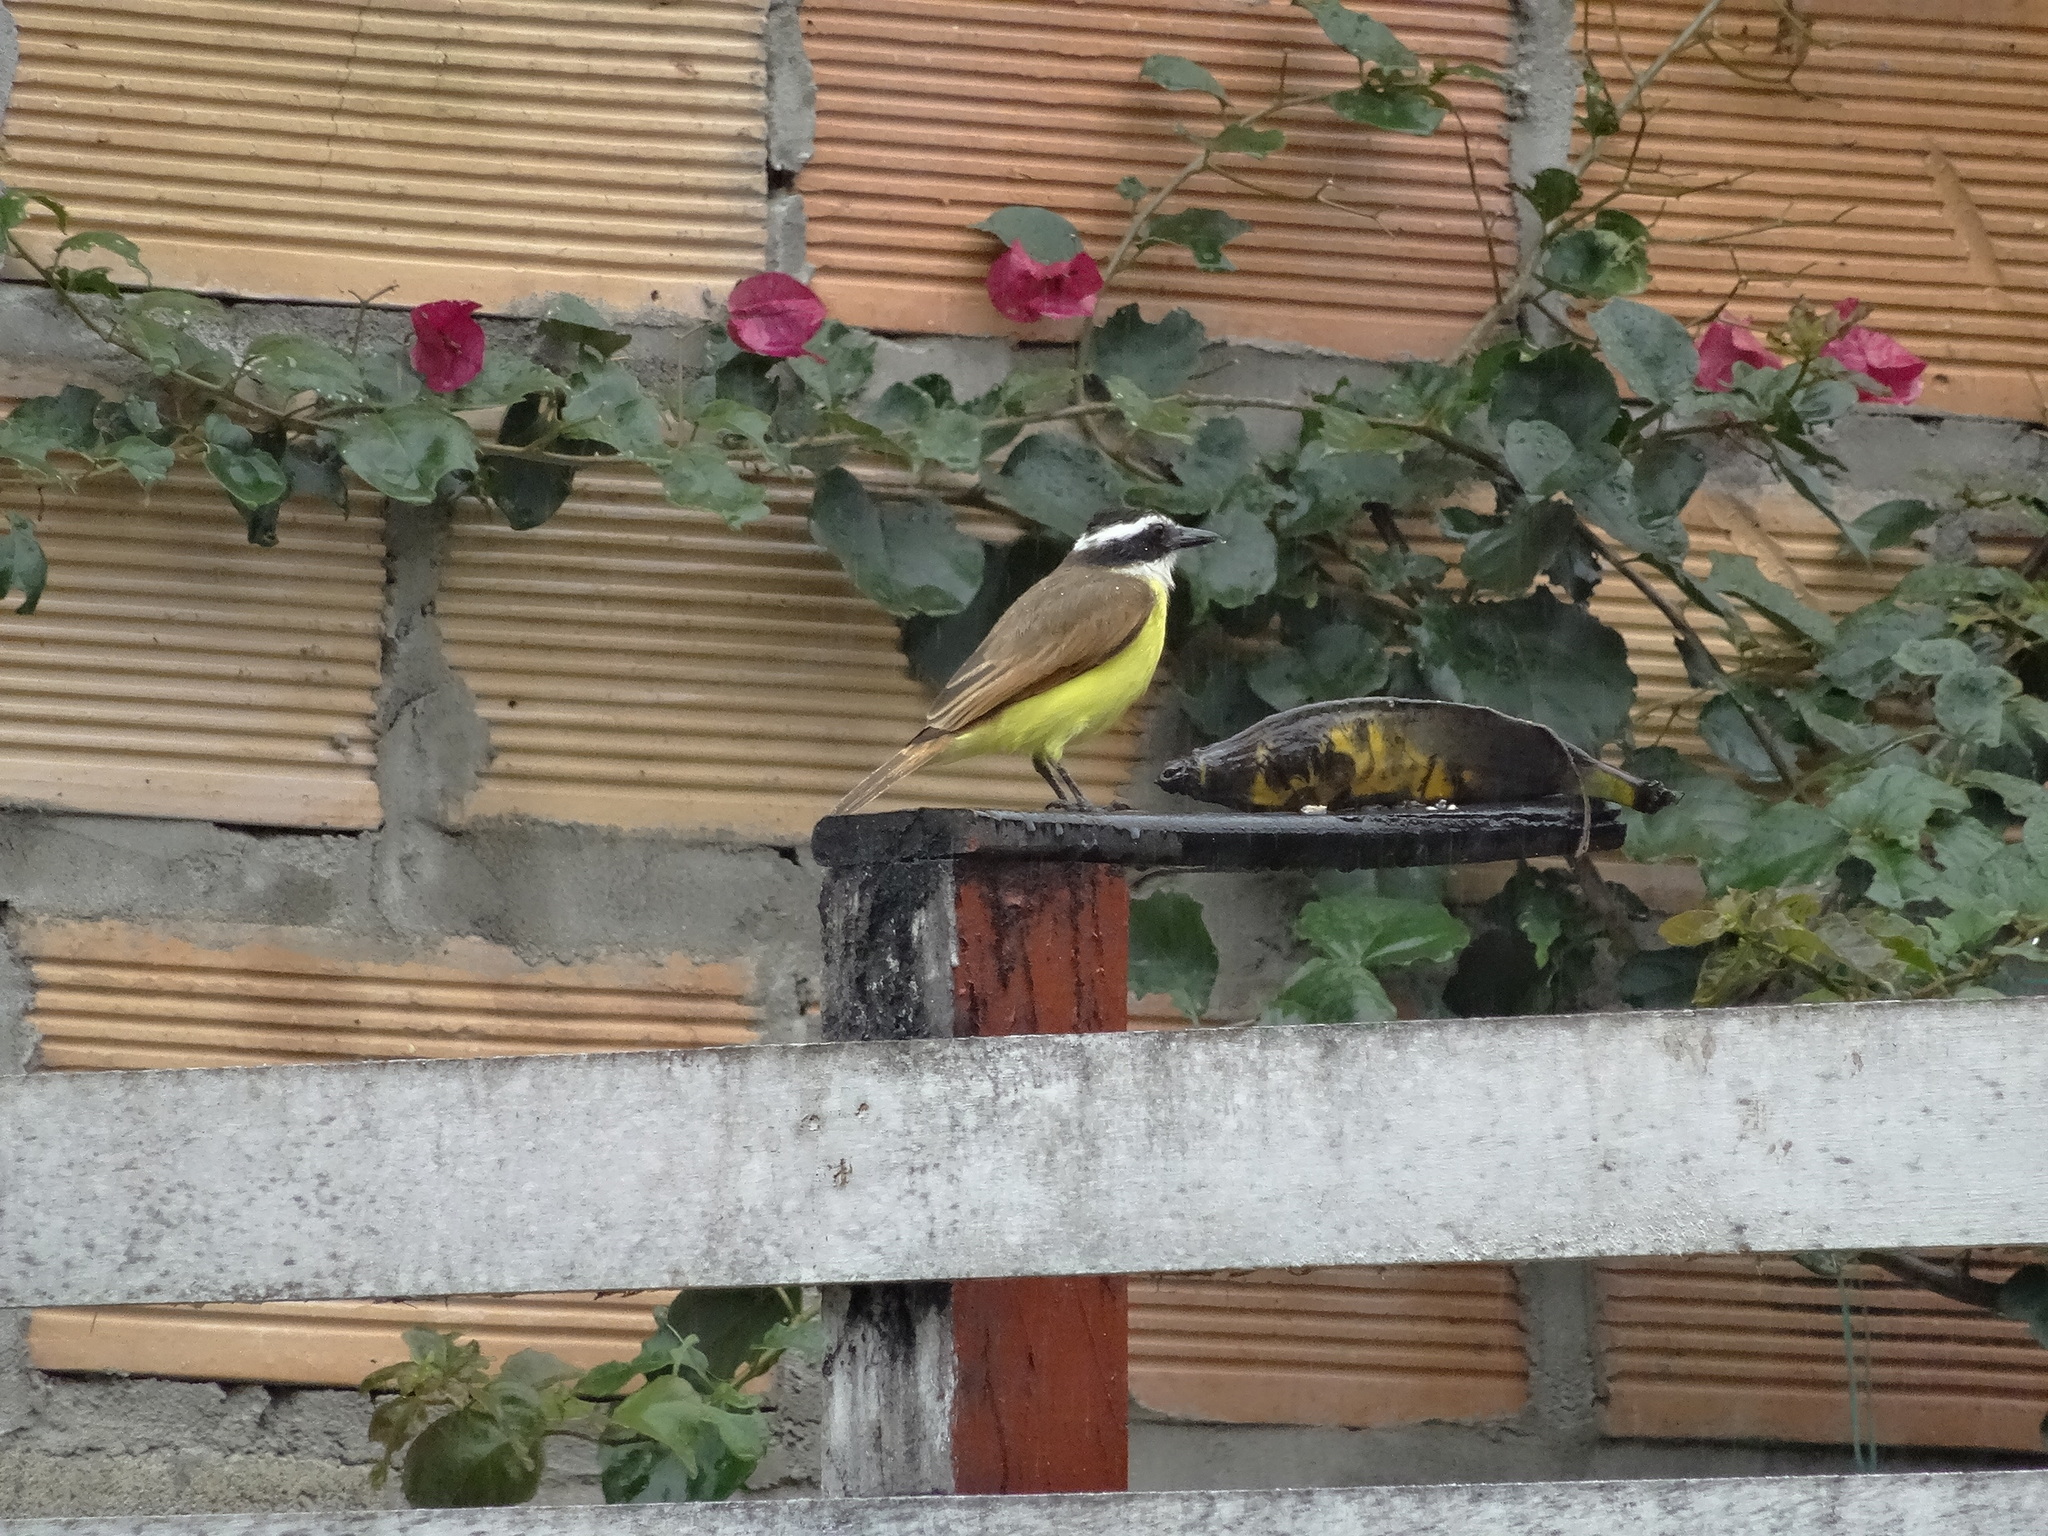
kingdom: Animalia
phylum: Chordata
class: Aves
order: Passeriformes
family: Tyrannidae
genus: Pitangus
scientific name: Pitangus sulphuratus
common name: Great kiskadee
